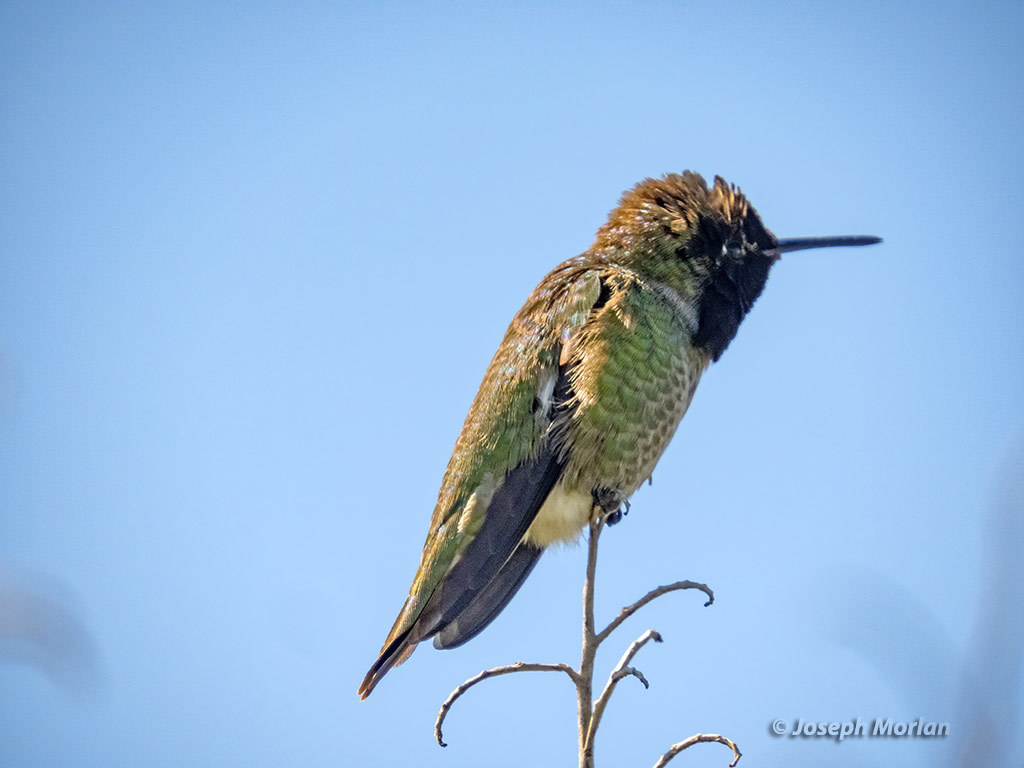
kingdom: Animalia
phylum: Chordata
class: Aves
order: Apodiformes
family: Trochilidae
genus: Calypte
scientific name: Calypte anna
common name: Anna's hummingbird
